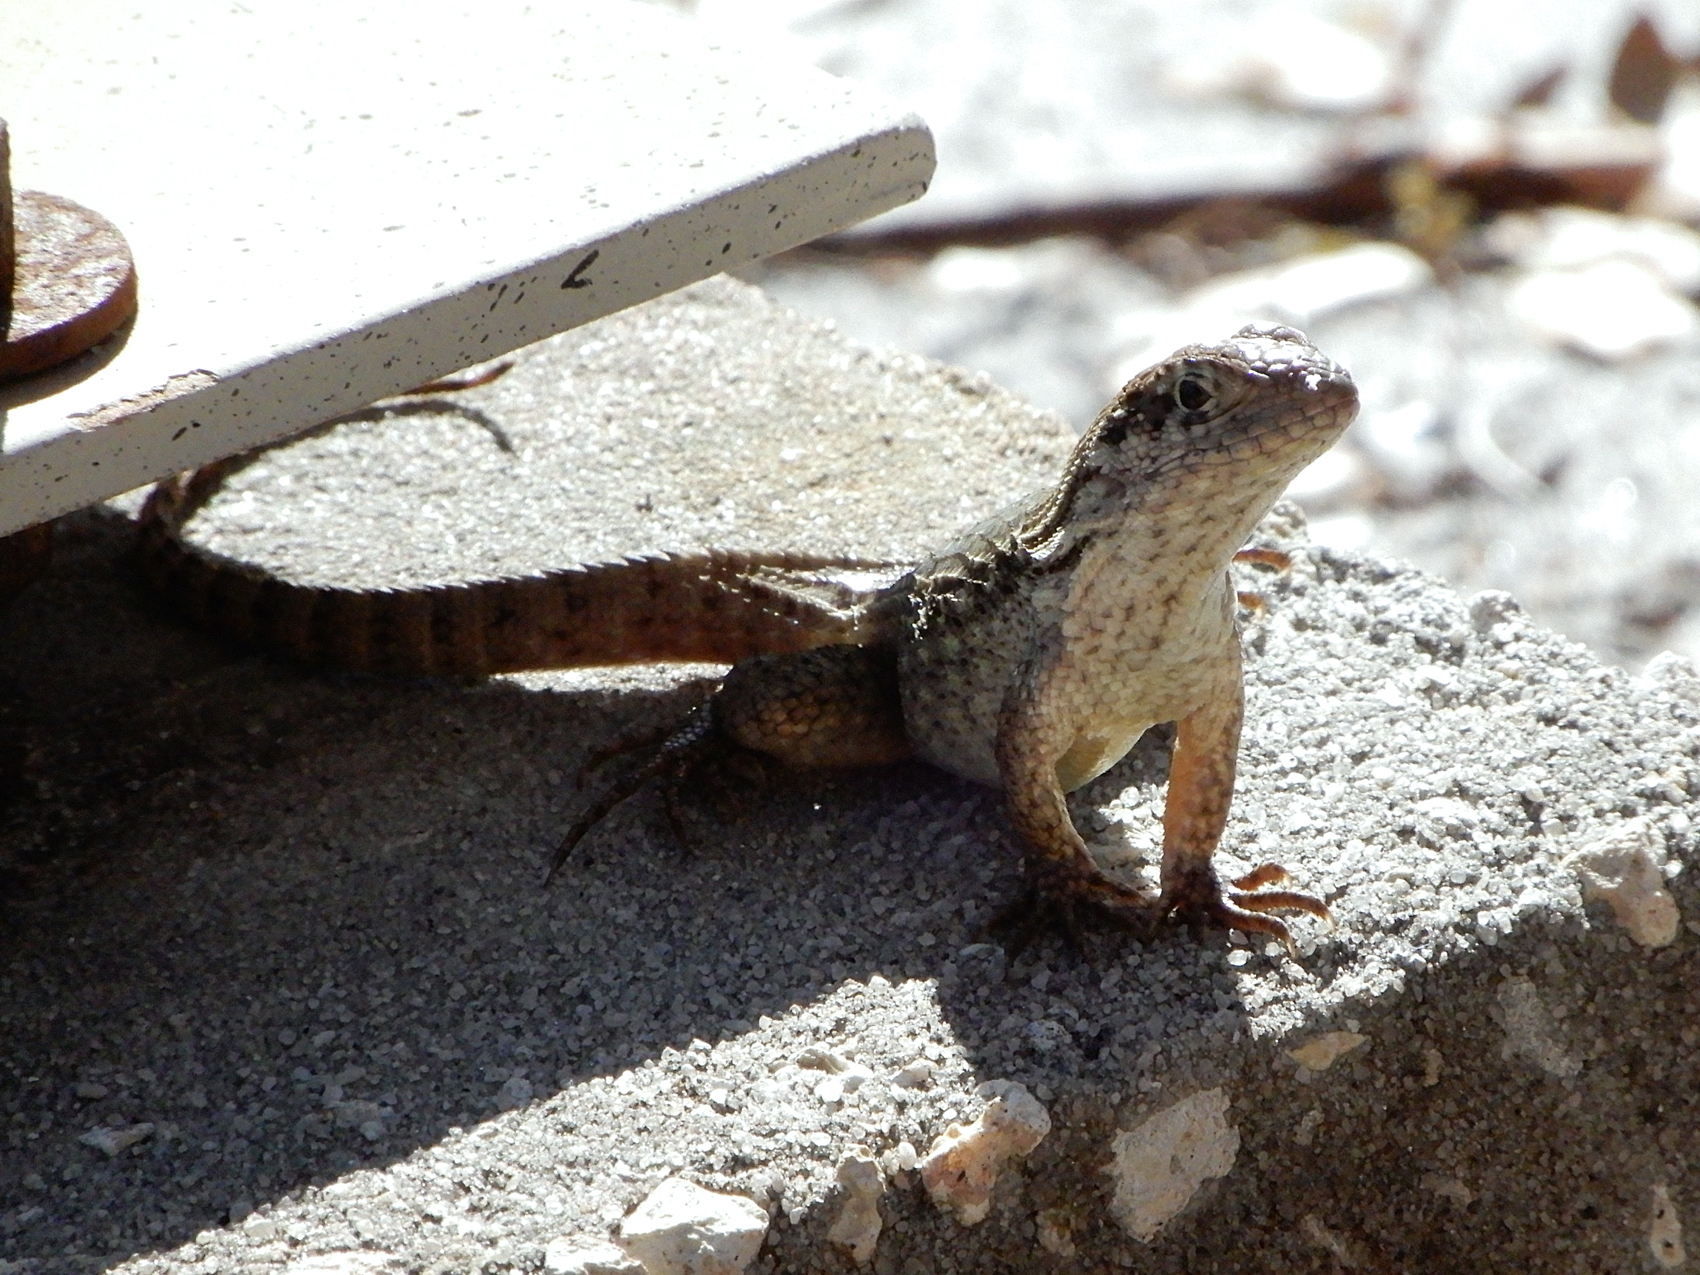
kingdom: Animalia
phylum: Chordata
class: Squamata
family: Leiocephalidae
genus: Leiocephalus
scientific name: Leiocephalus carinatus
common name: Northern curly-tailed lizard
